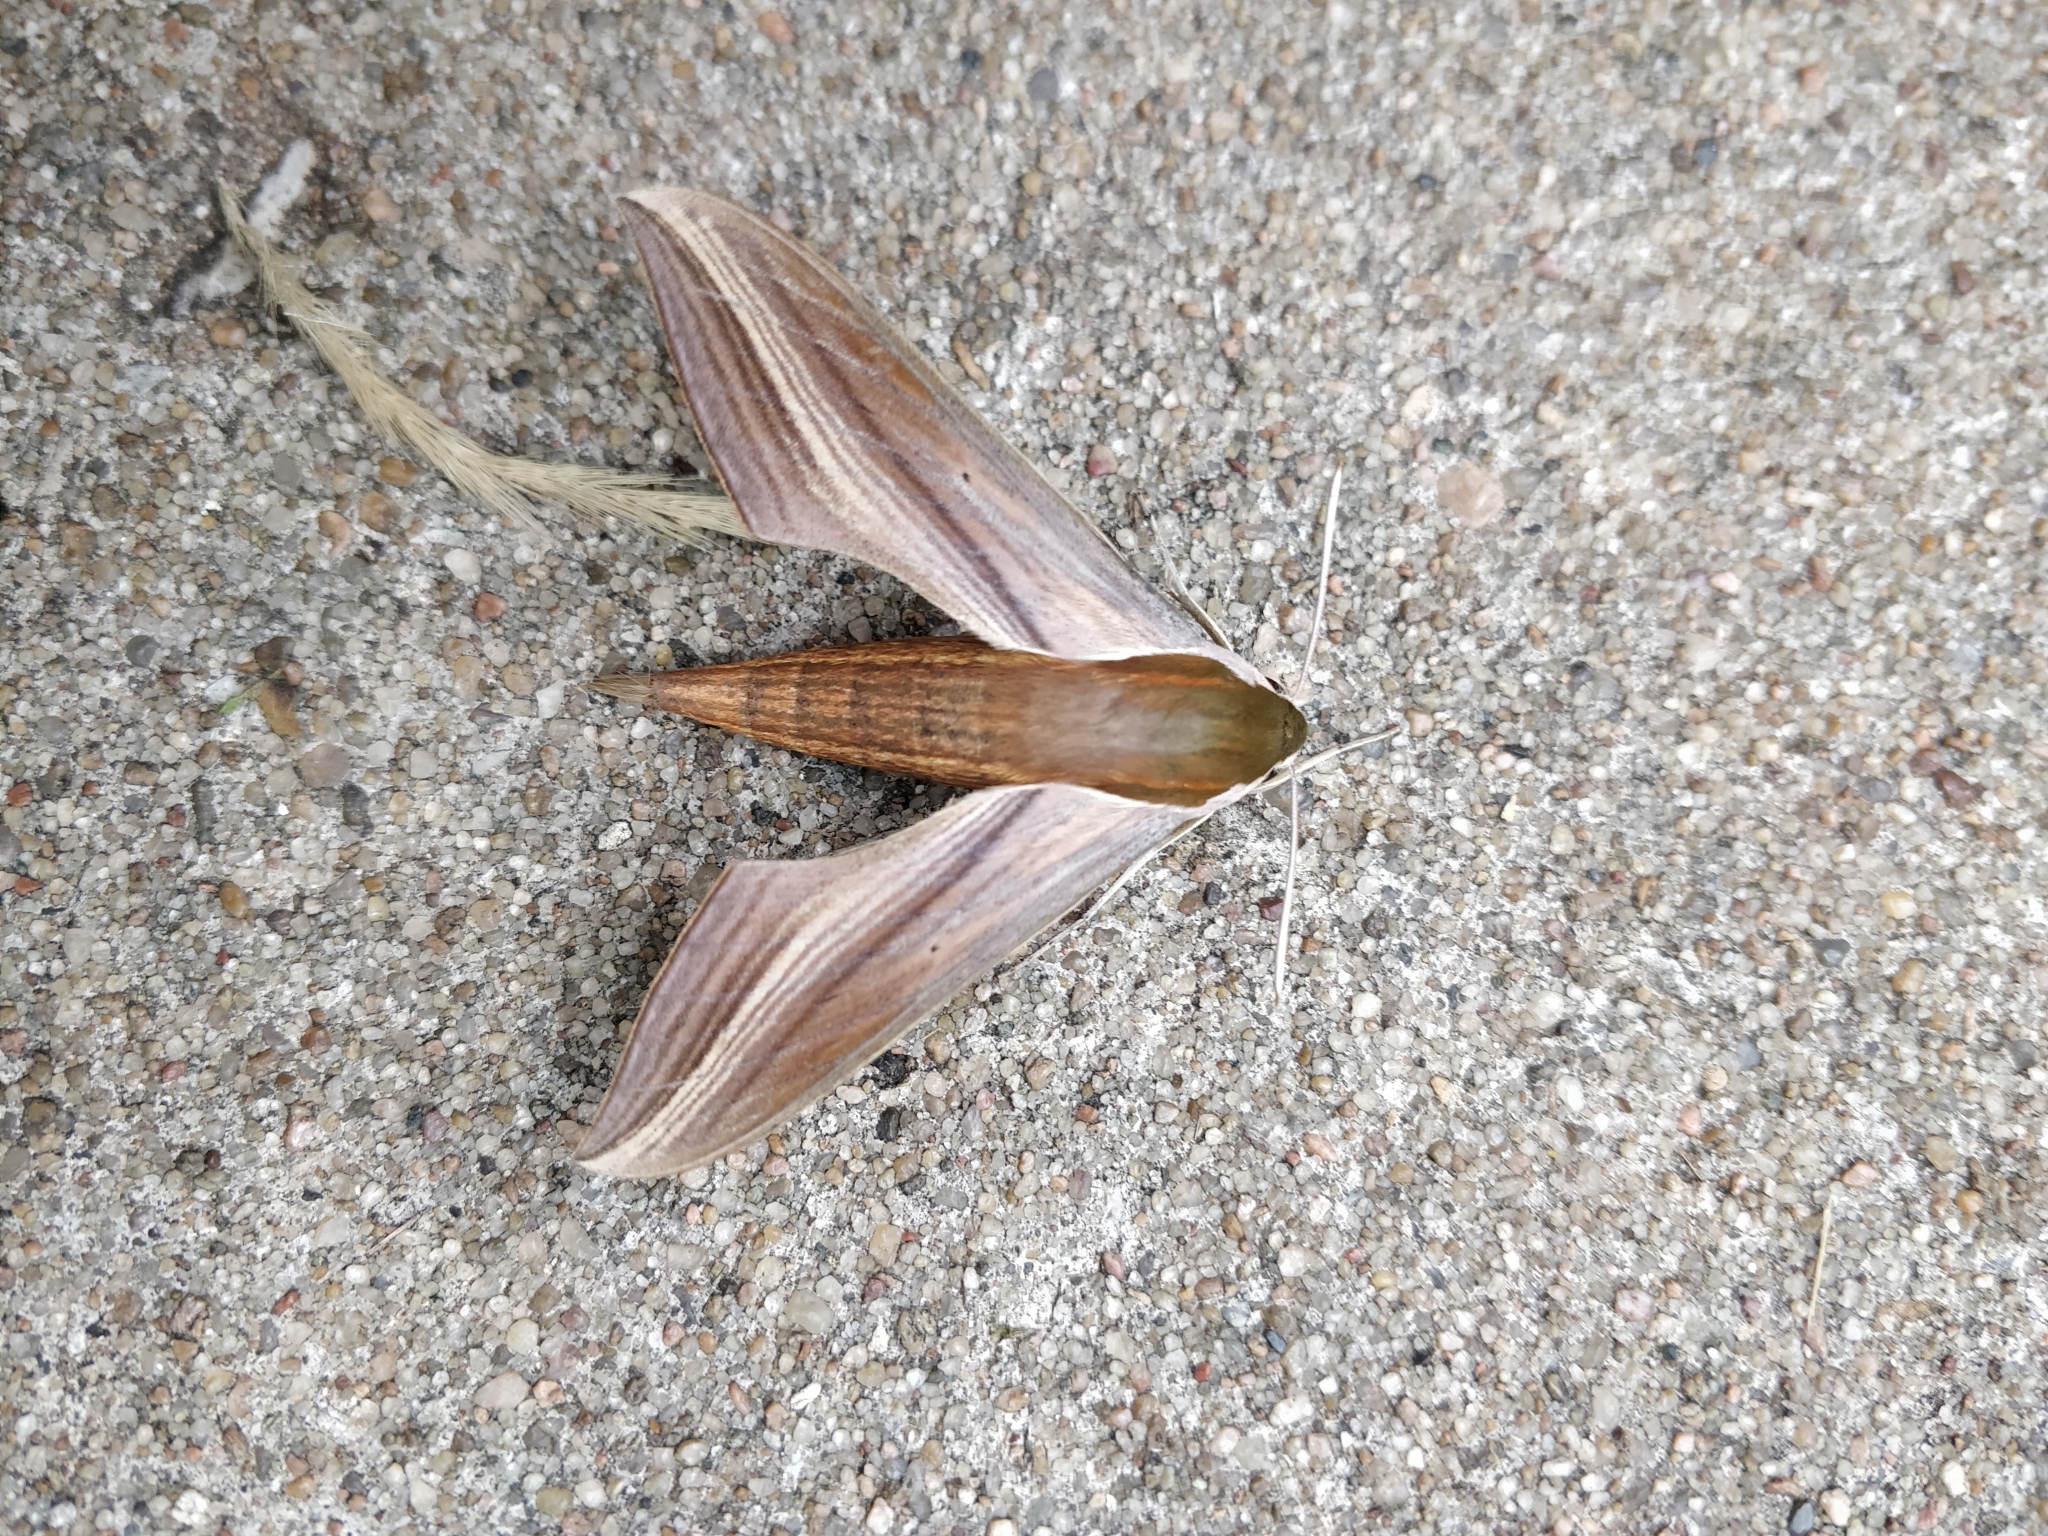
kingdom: Animalia
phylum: Arthropoda
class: Insecta
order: Lepidoptera
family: Sphingidae
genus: Xylophanes
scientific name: Xylophanes tersa
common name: Tersa sphinx
